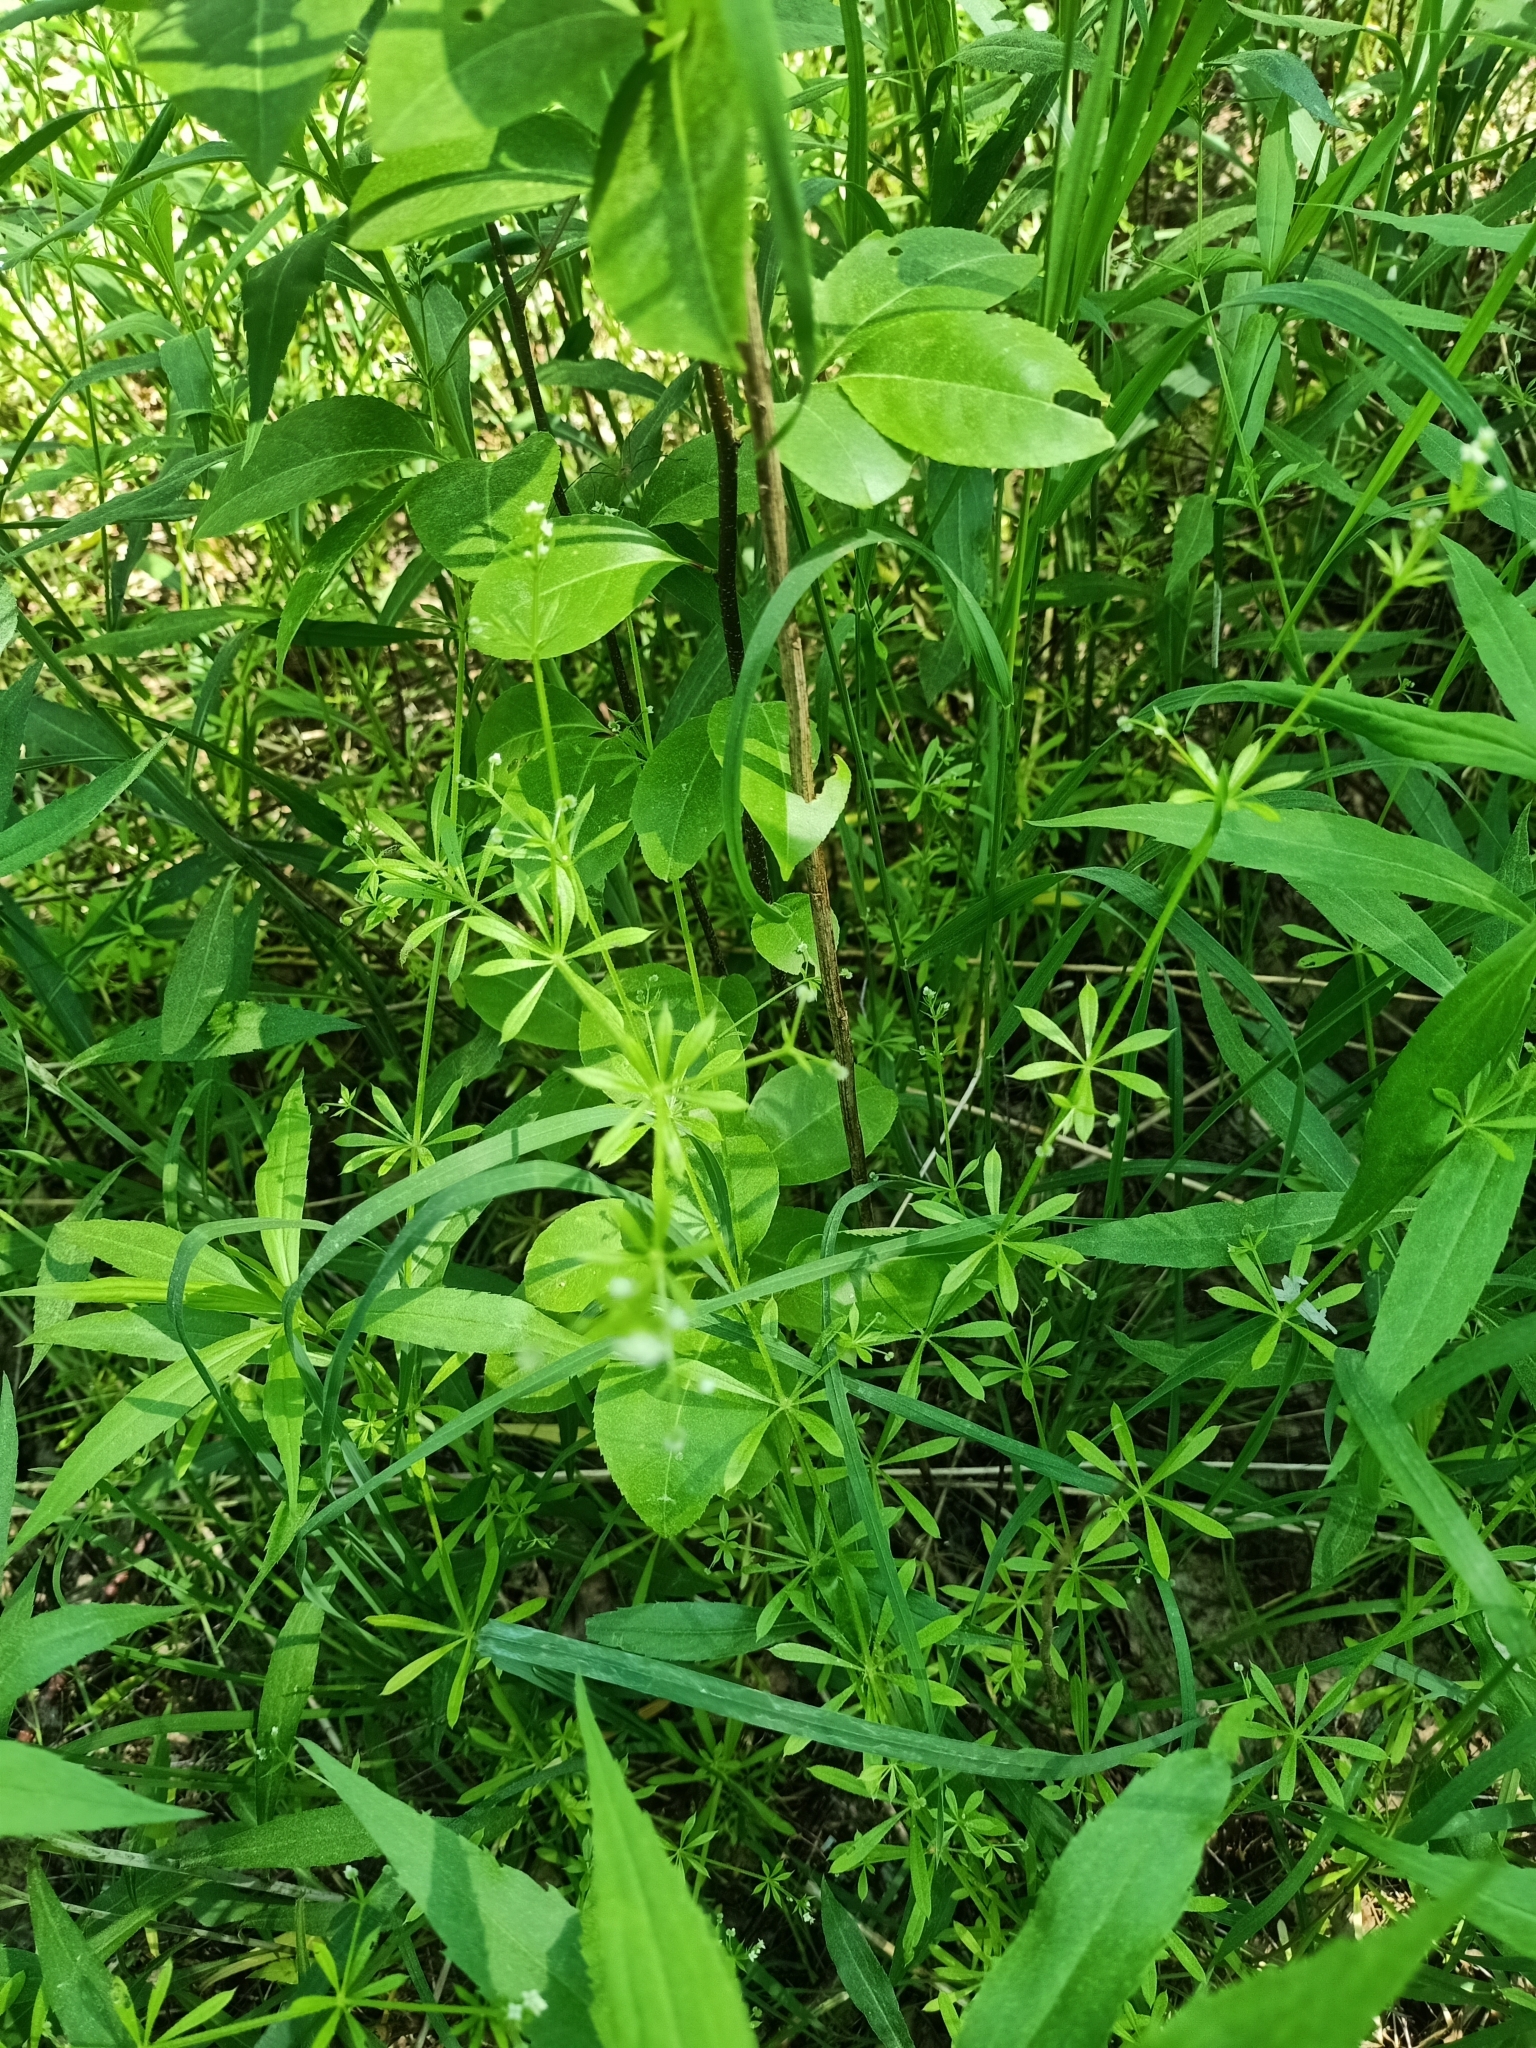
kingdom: Plantae
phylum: Tracheophyta
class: Magnoliopsida
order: Gentianales
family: Rubiaceae
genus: Galium
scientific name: Galium aparine
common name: Cleavers
